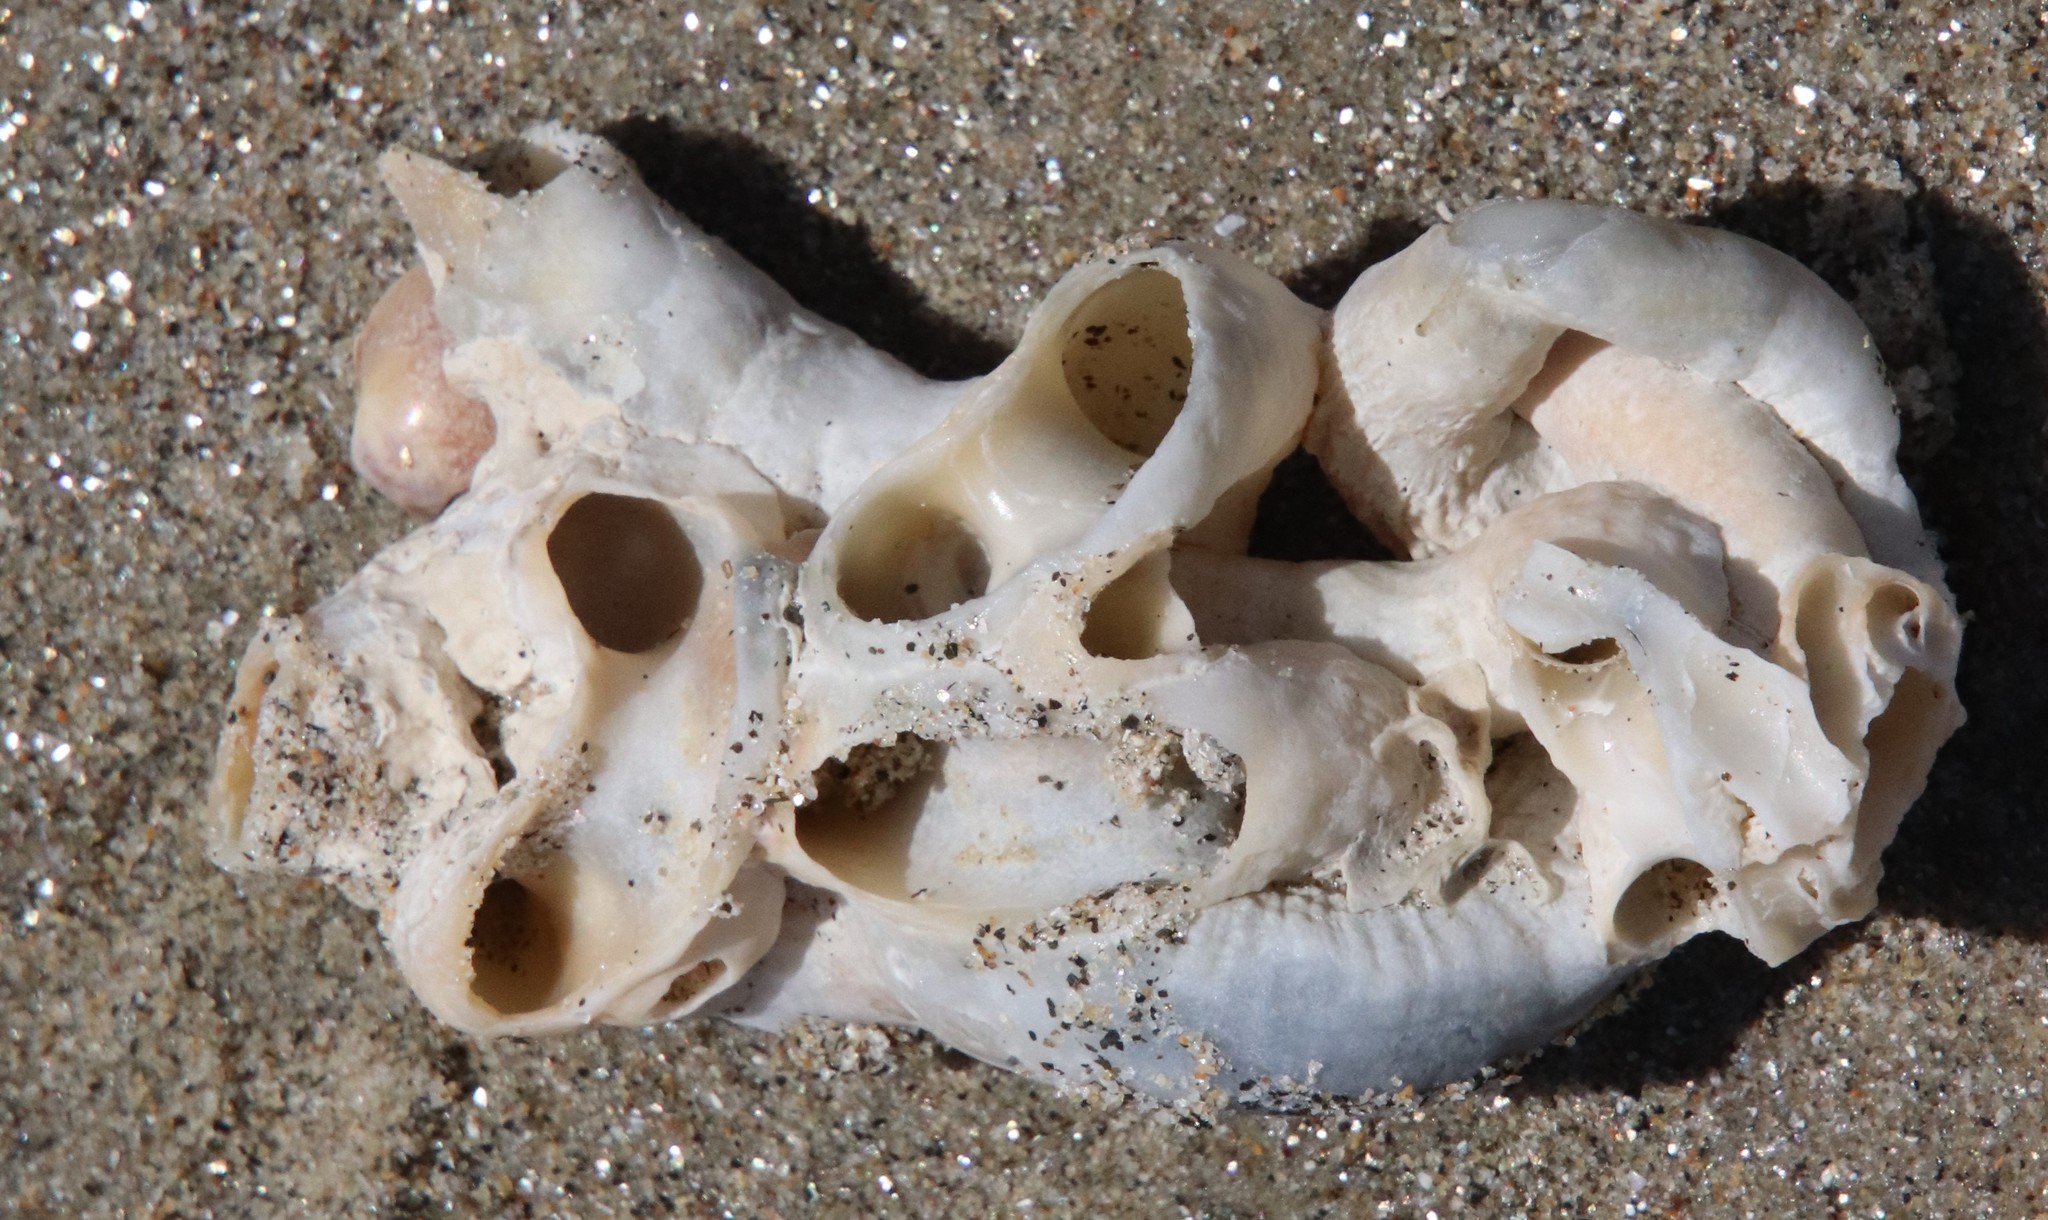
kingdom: Animalia
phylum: Mollusca
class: Gastropoda
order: Littorinimorpha
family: Vermetidae
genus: Thylacodes
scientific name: Thylacodes squamigerus
